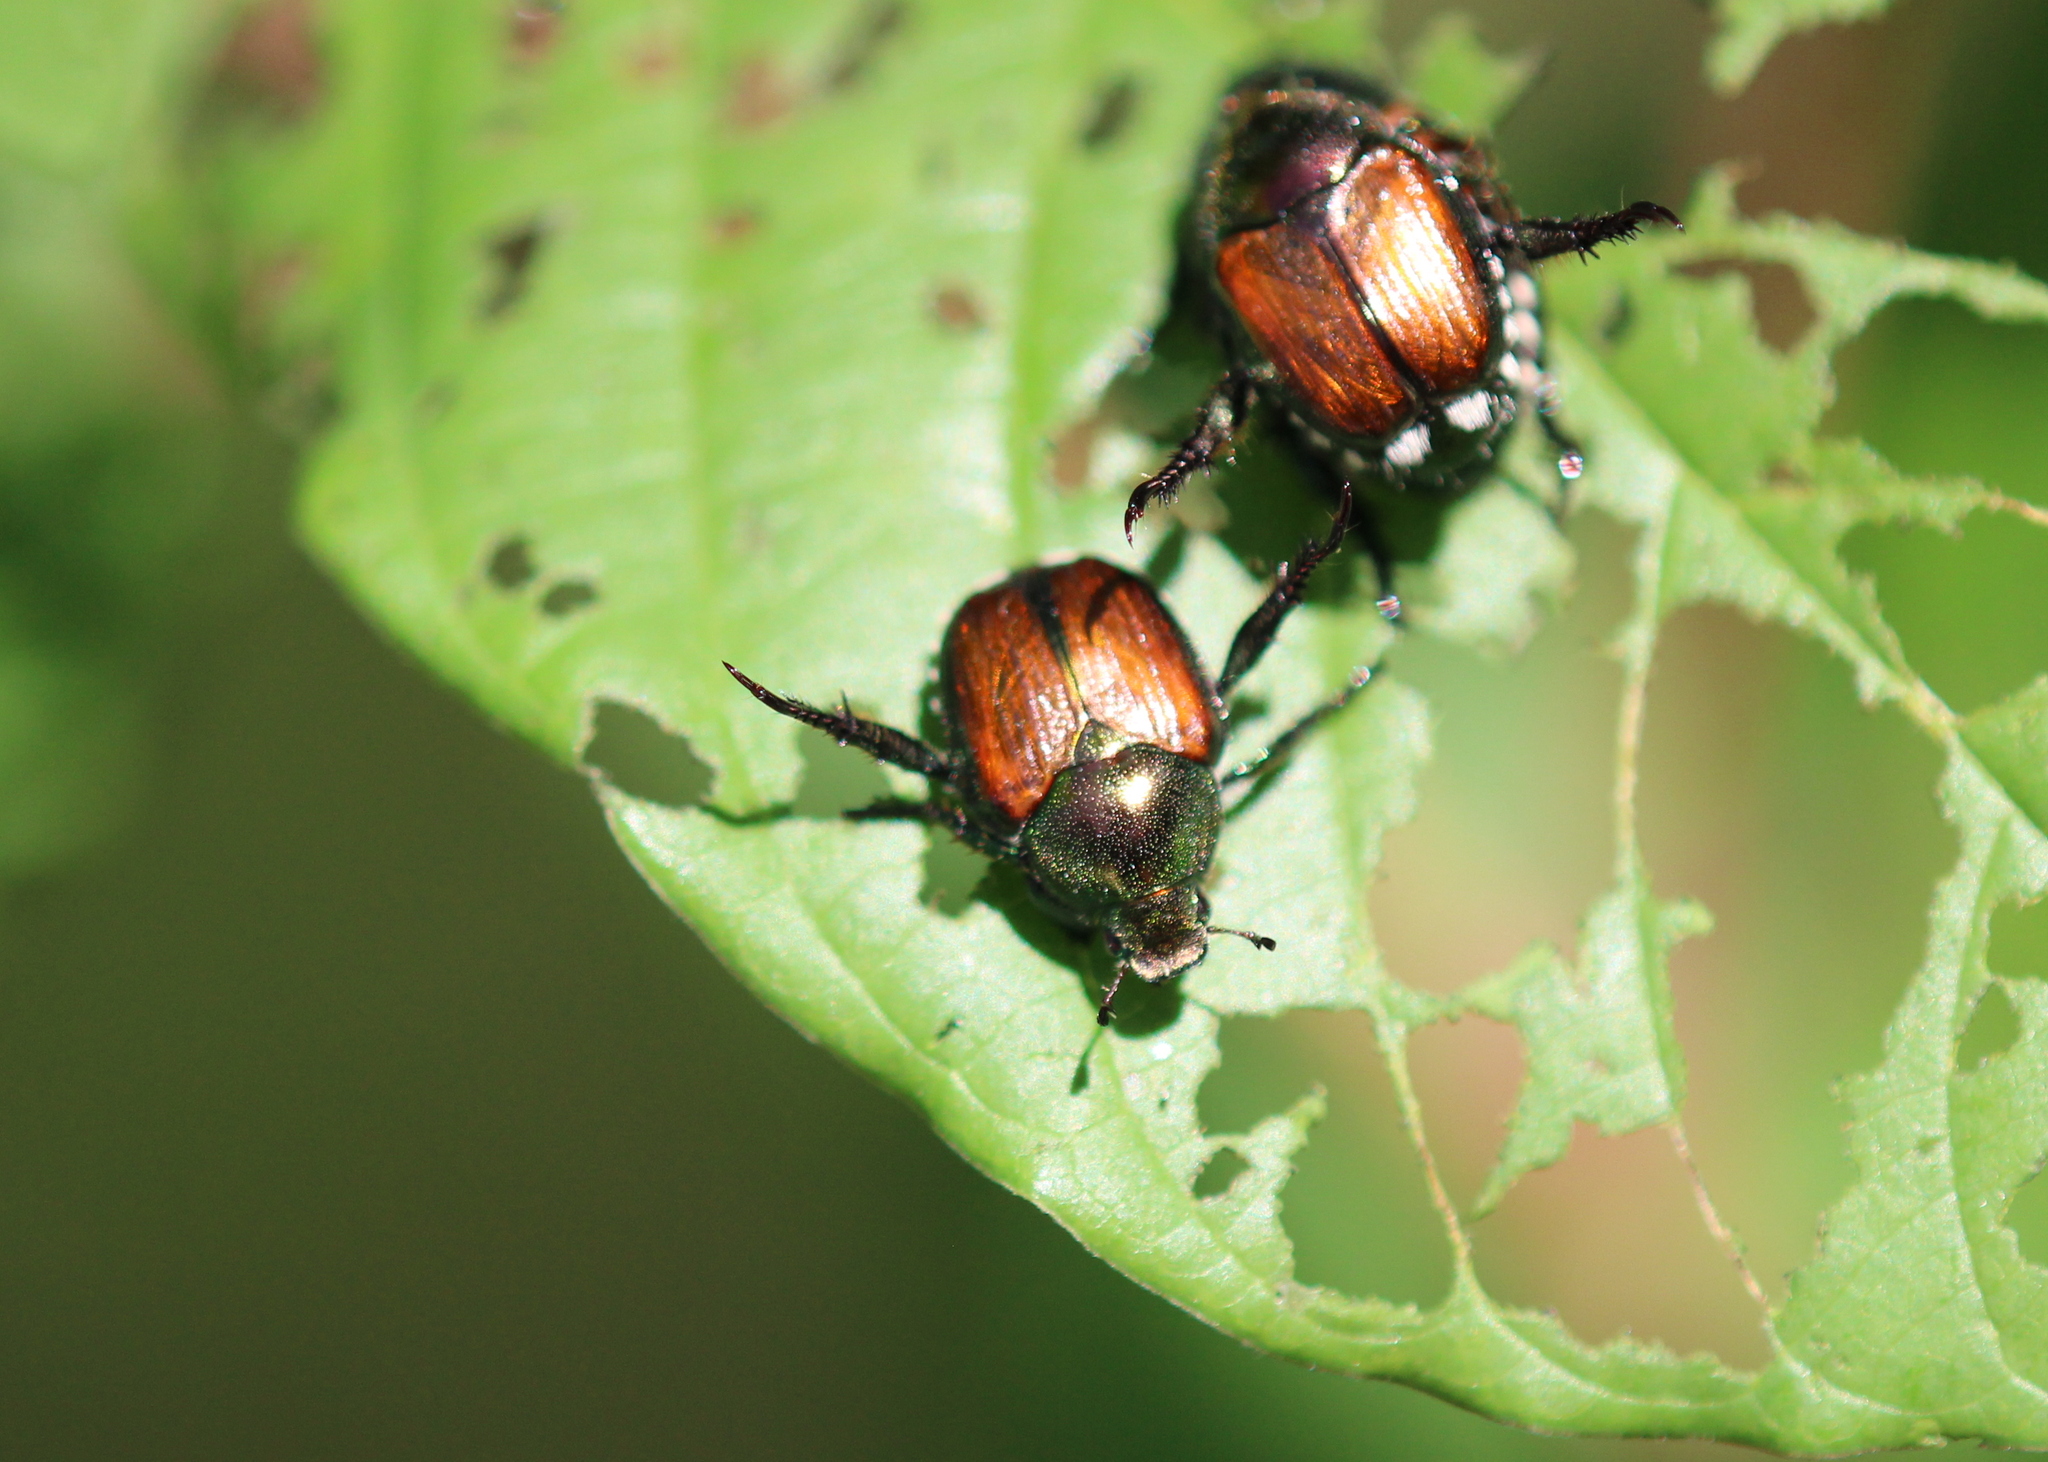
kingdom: Animalia
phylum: Arthropoda
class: Insecta
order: Coleoptera
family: Scarabaeidae
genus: Popillia
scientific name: Popillia japonica
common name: Japanese beetle
